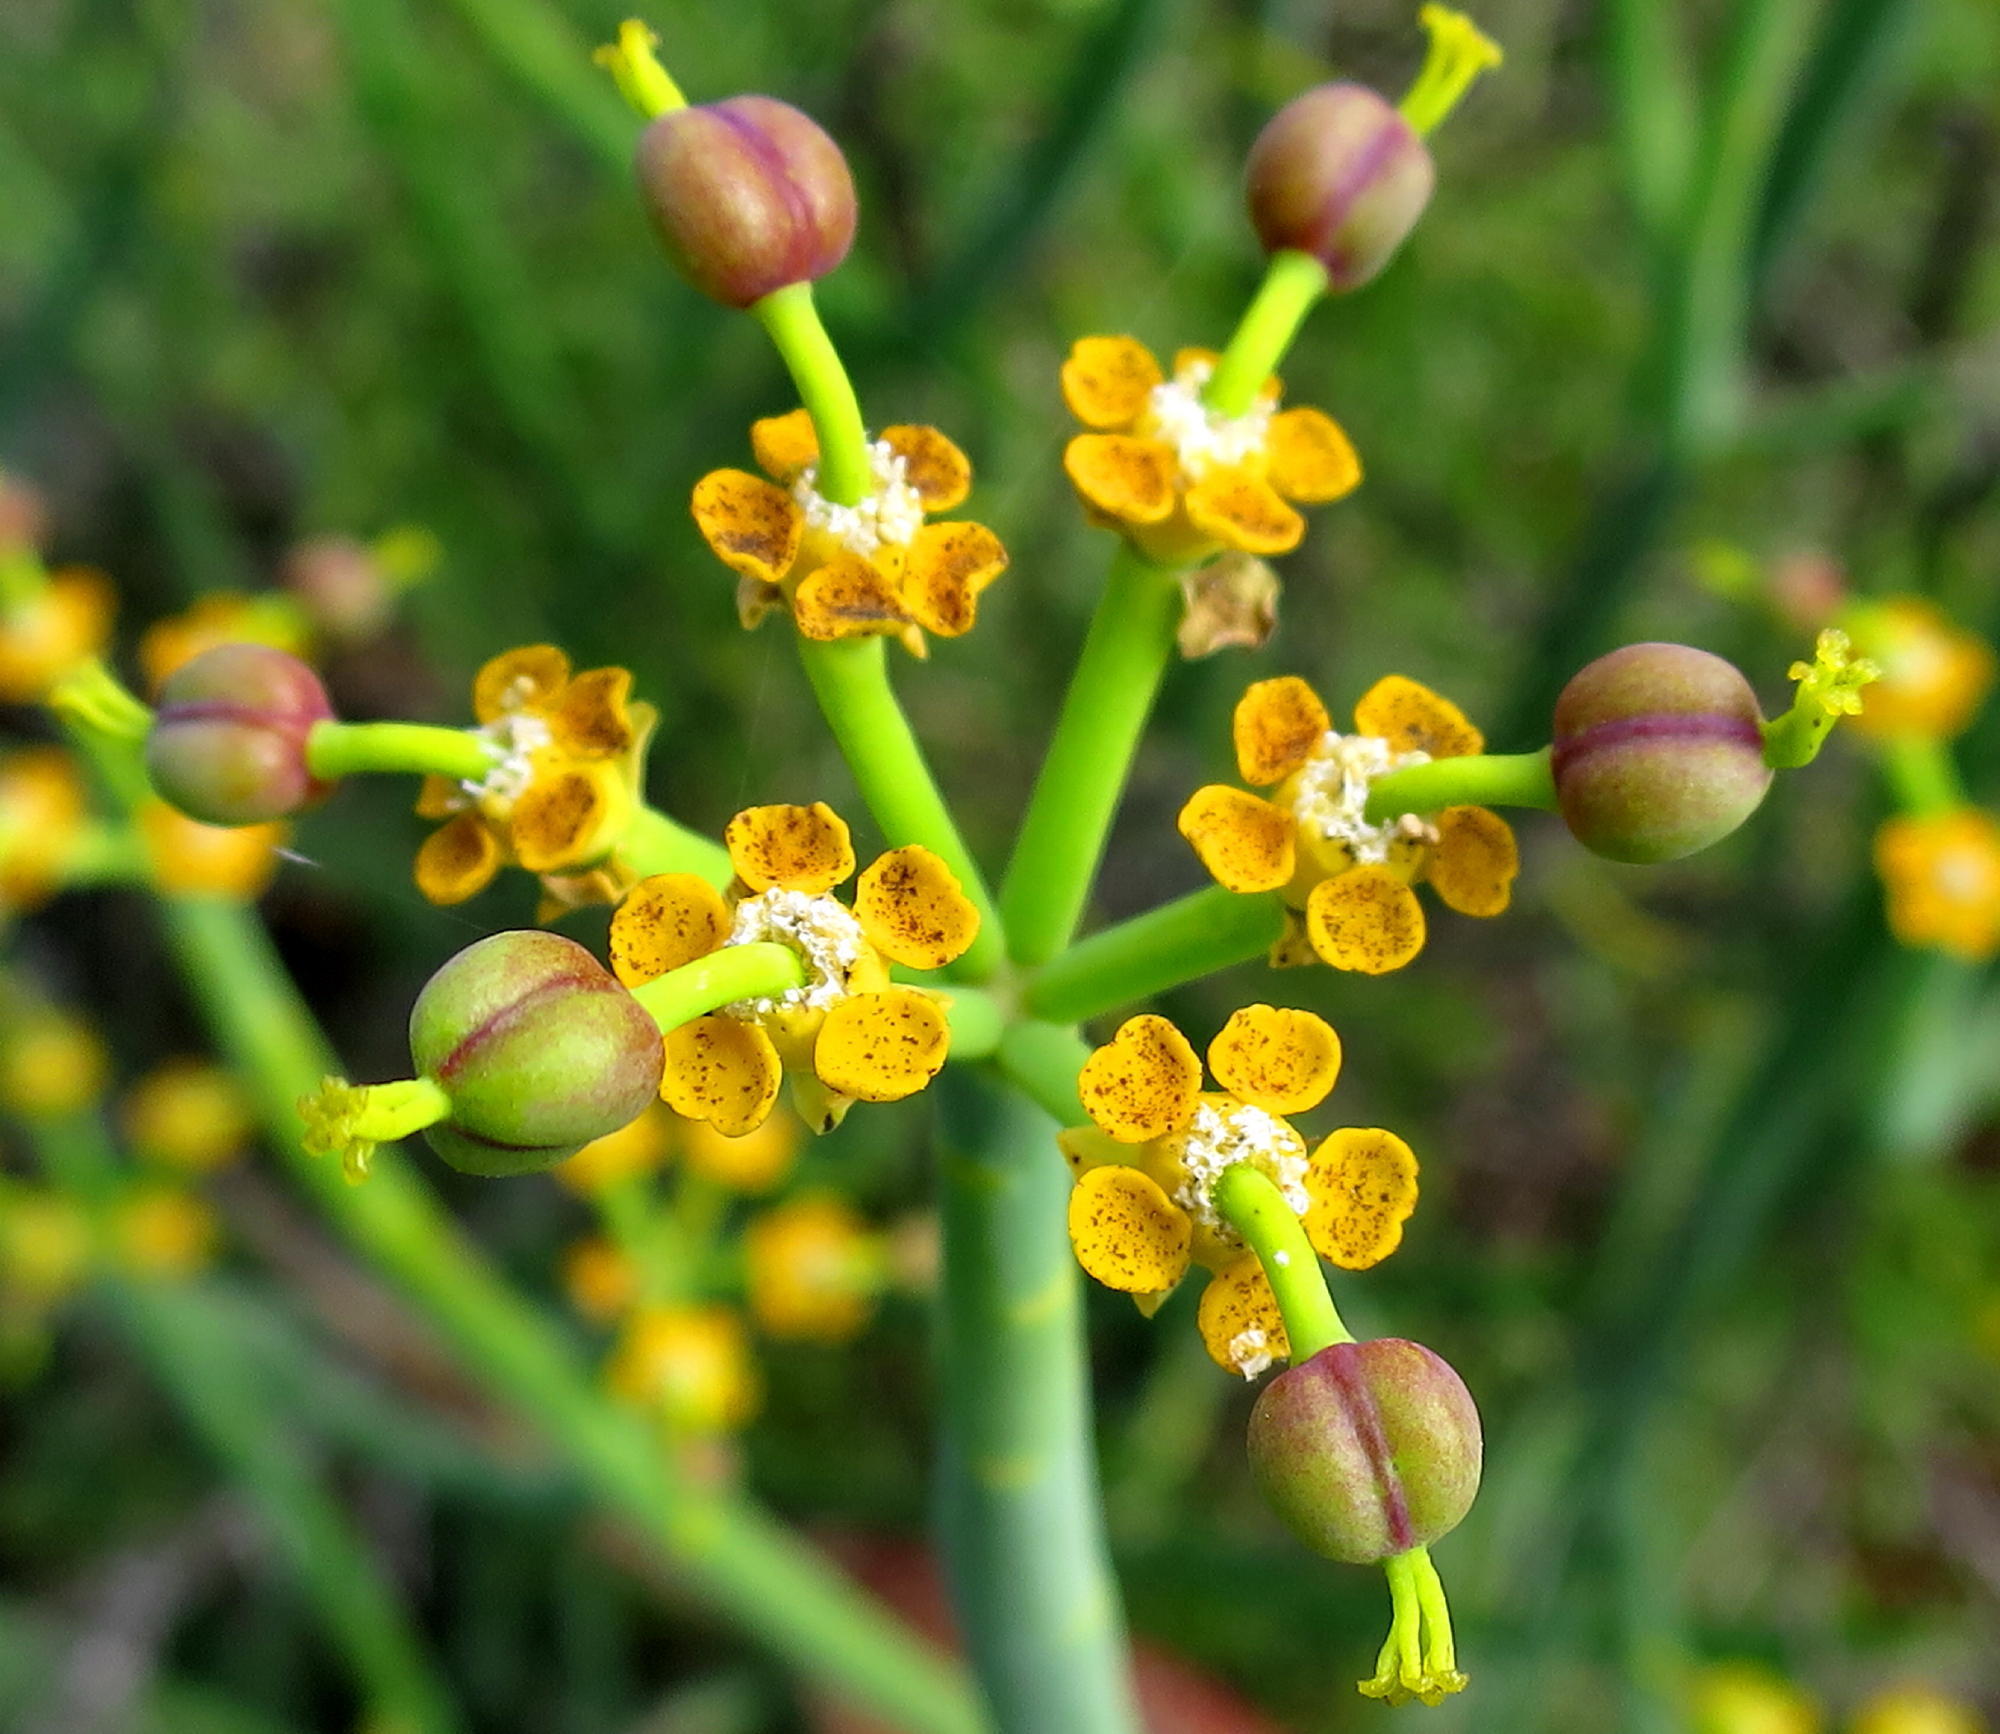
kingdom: Plantae
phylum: Tracheophyta
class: Magnoliopsida
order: Malpighiales
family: Euphorbiaceae
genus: Euphorbia
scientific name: Euphorbia mauritanica
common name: Jackal's-food
